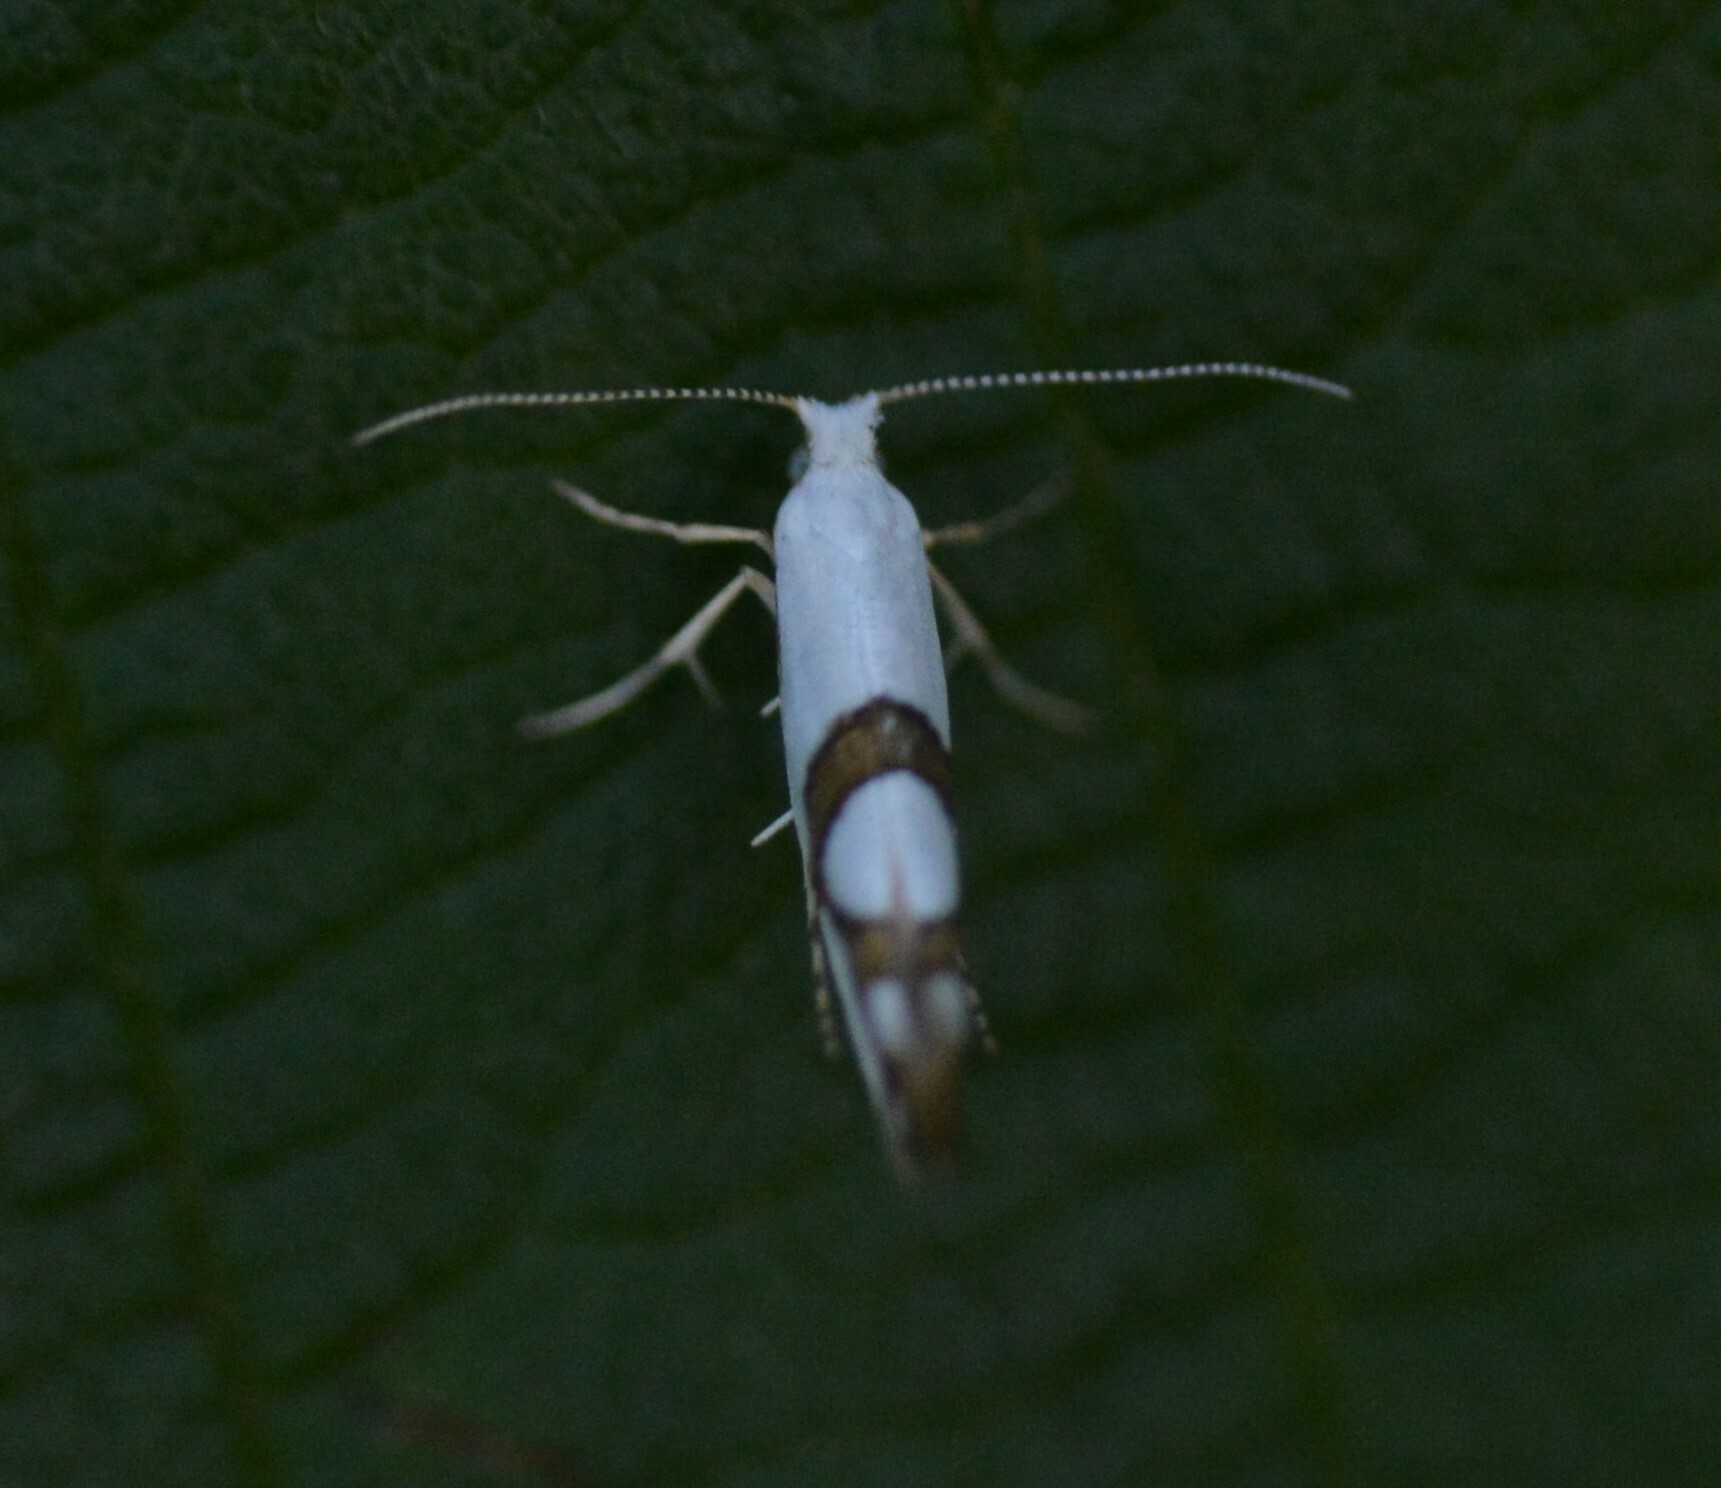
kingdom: Animalia
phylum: Arthropoda
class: Insecta
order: Lepidoptera
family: Argyresthiidae
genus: Argyresthia
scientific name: Argyresthia oreasella
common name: Cherry shoot borer moth
